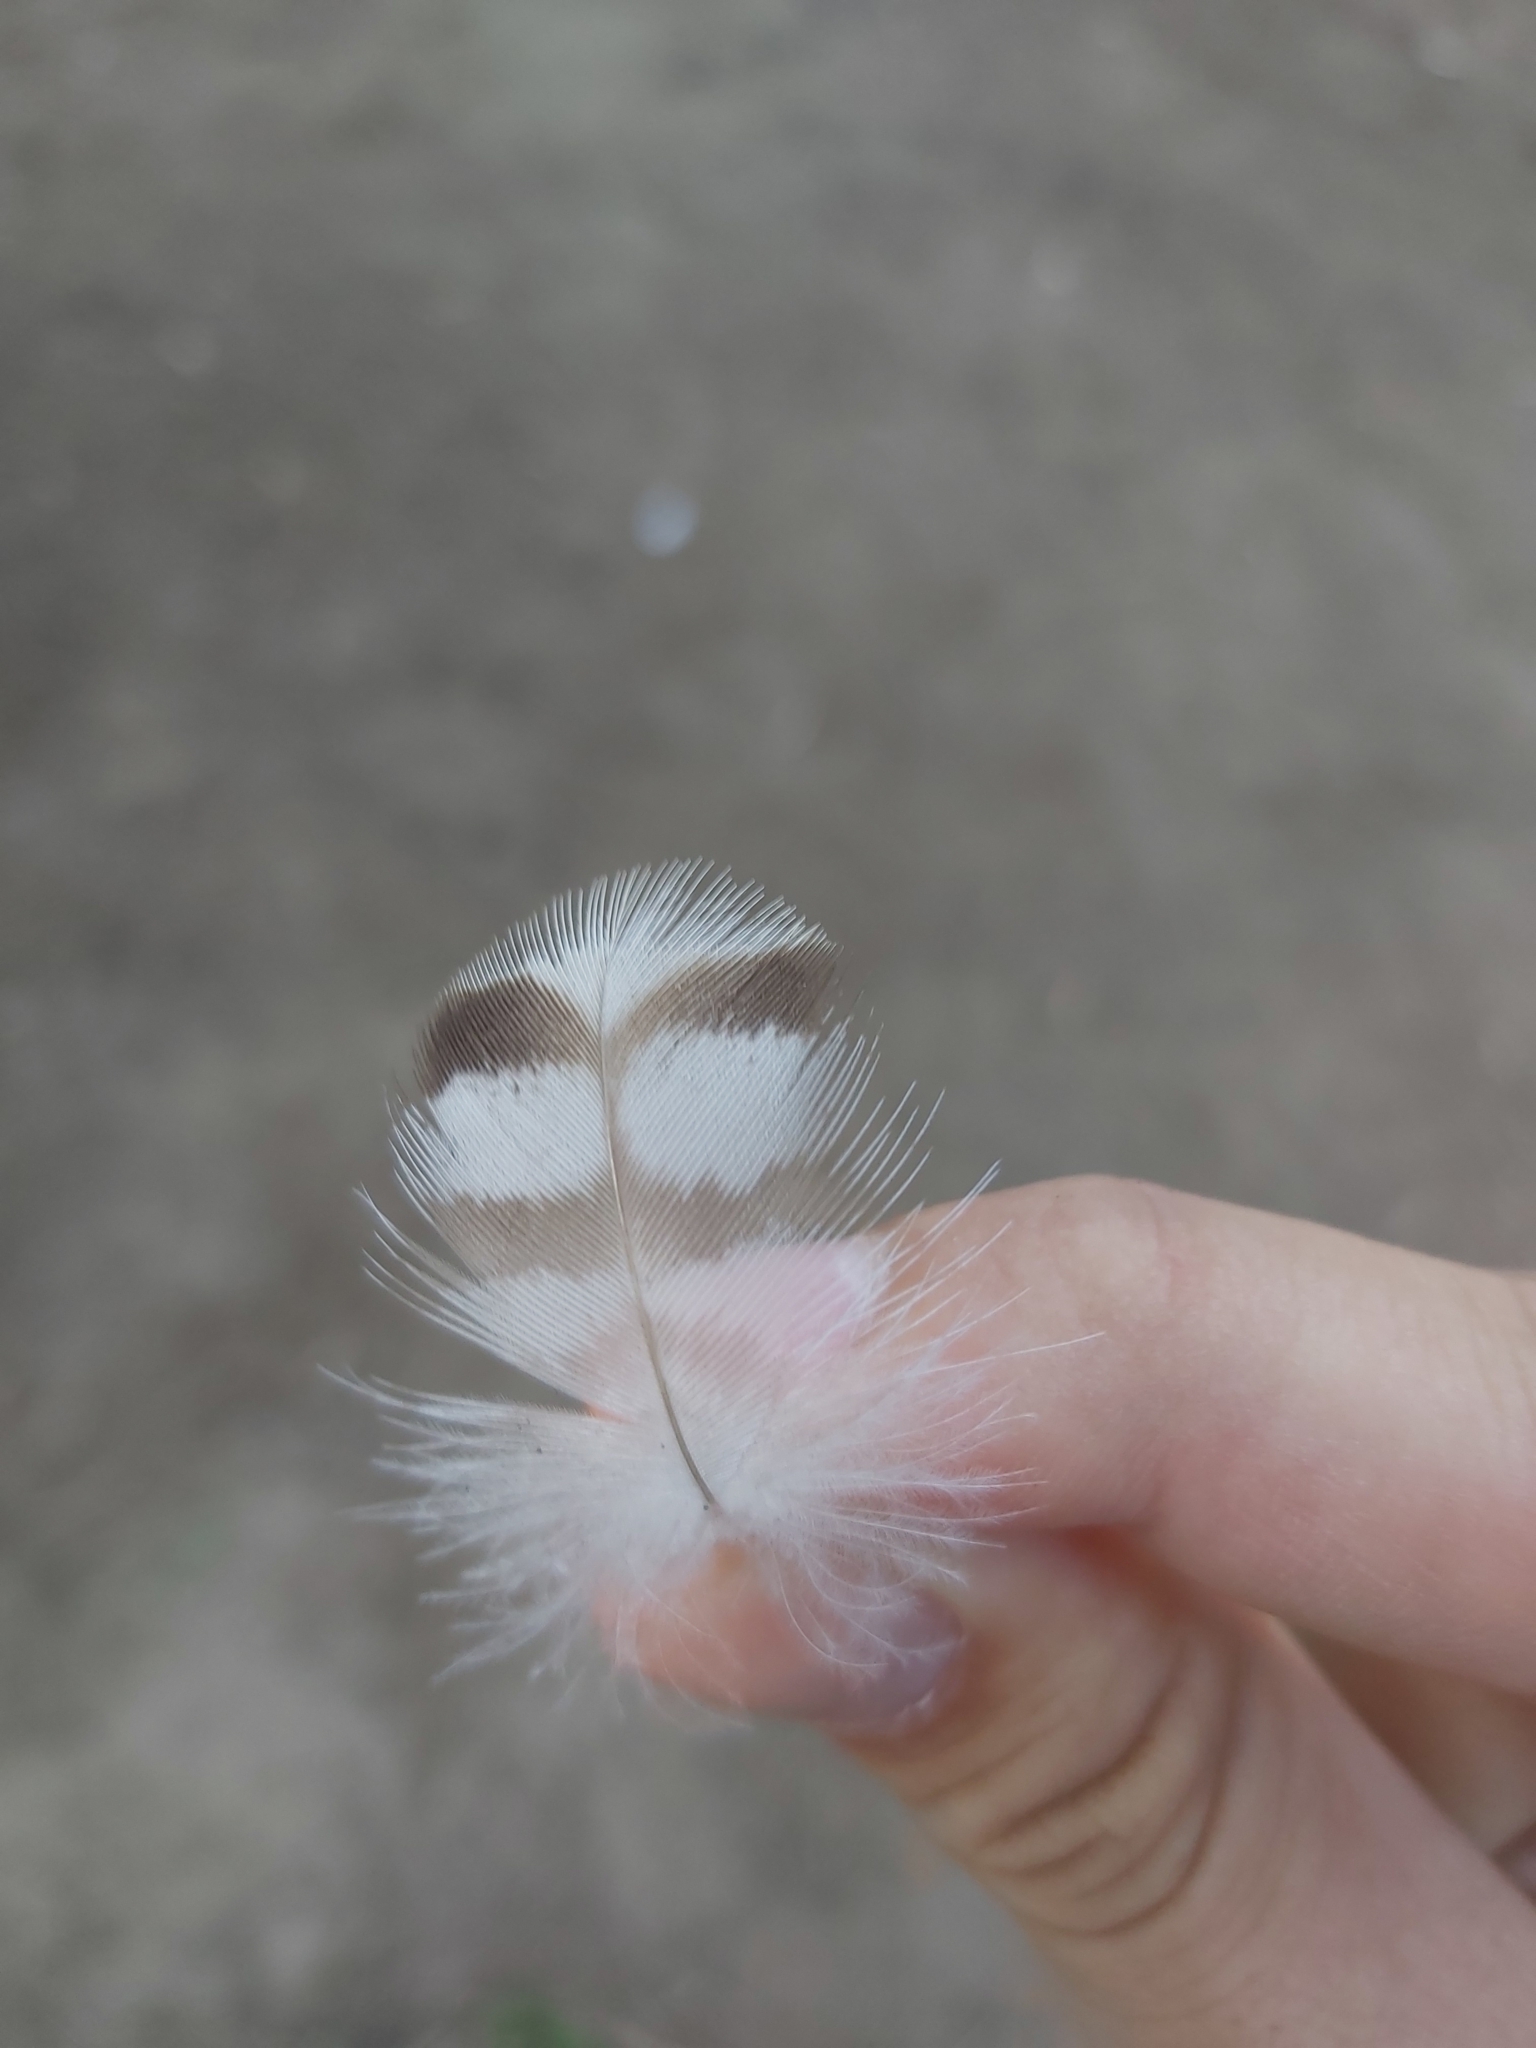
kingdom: Animalia
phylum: Chordata
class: Aves
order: Anseriformes
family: Anatidae
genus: Chenonetta
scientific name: Chenonetta jubata
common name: Maned duck
